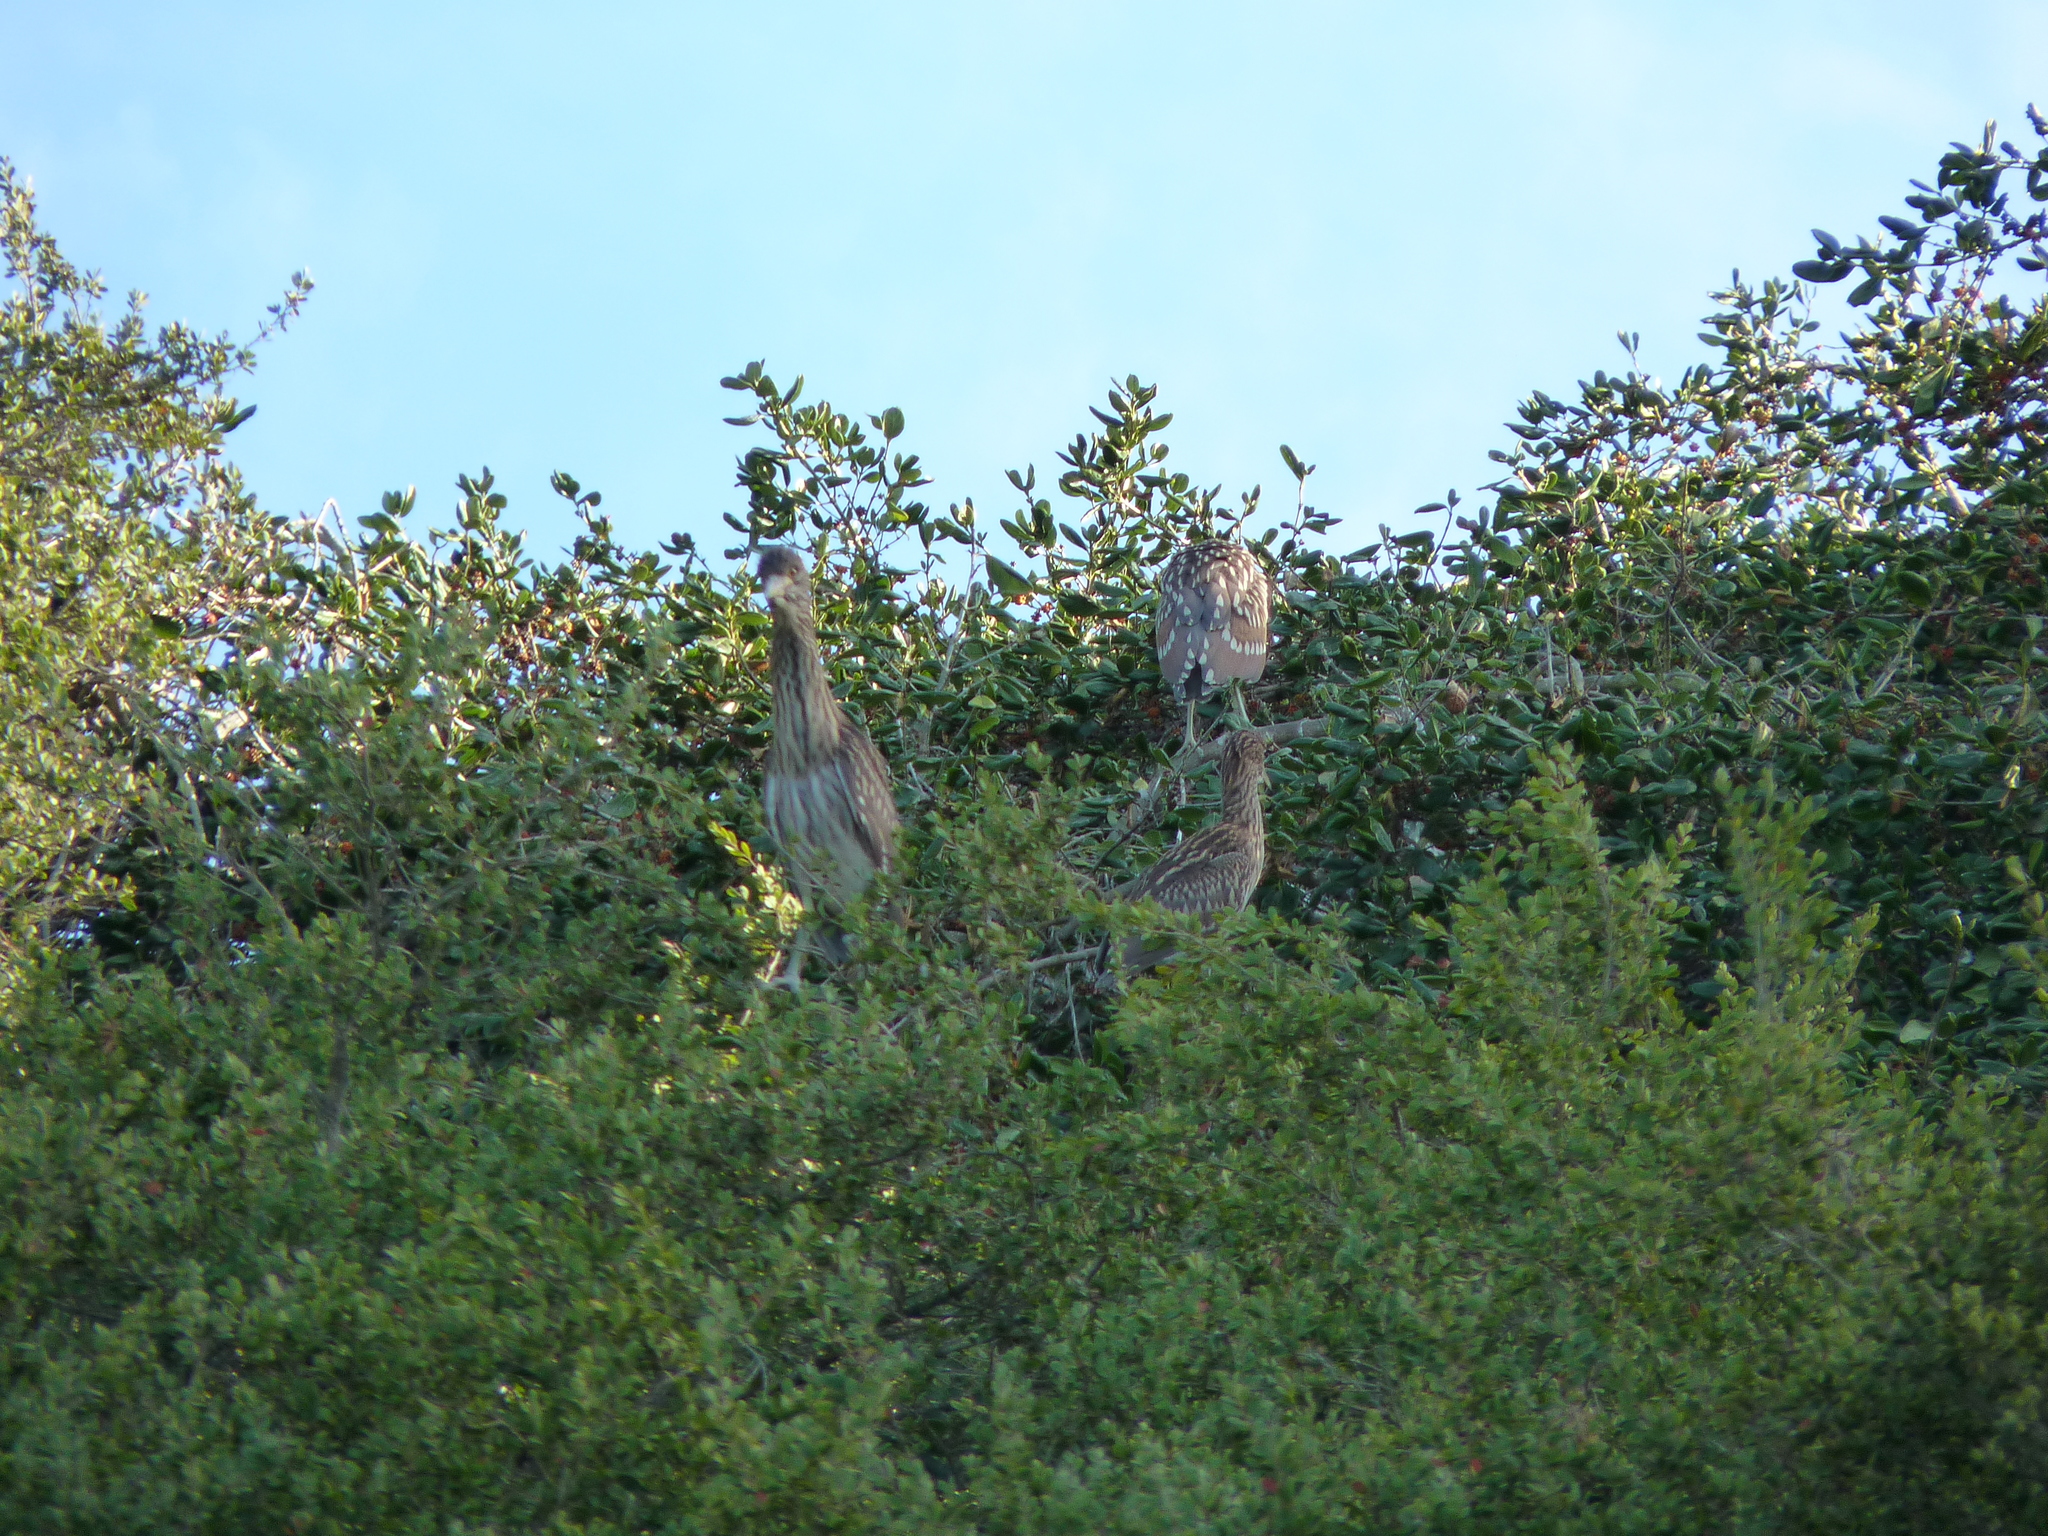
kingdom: Animalia
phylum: Chordata
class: Aves
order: Pelecaniformes
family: Ardeidae
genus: Nycticorax
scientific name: Nycticorax nycticorax
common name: Black-crowned night heron
